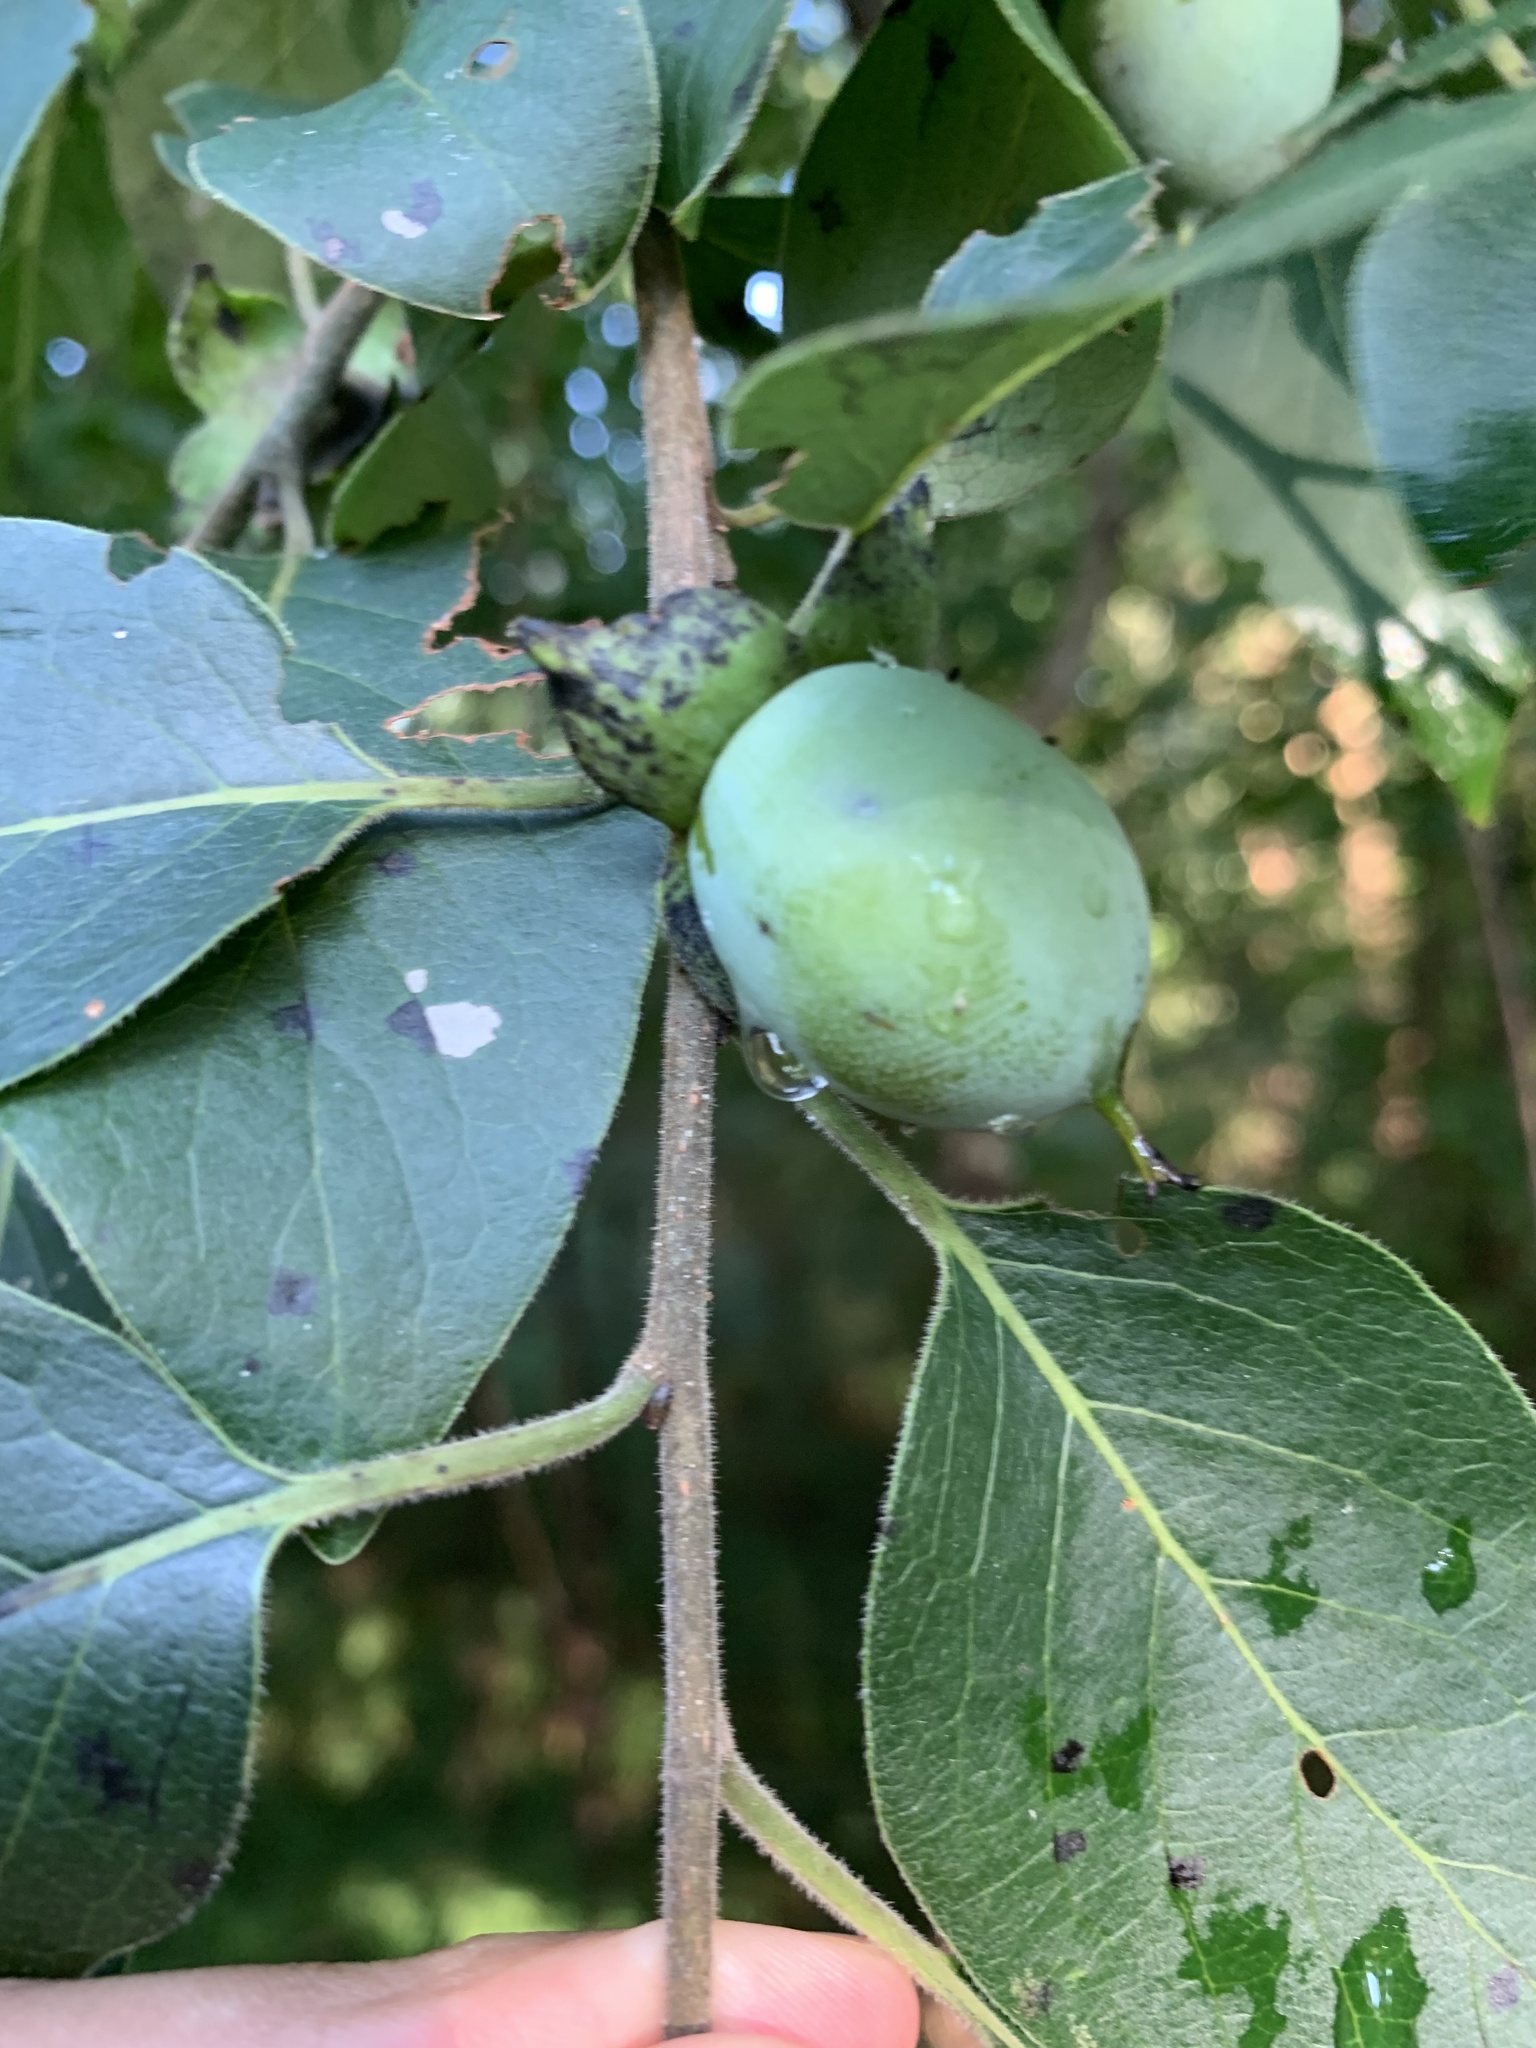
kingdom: Plantae
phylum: Tracheophyta
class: Magnoliopsida
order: Ericales
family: Ebenaceae
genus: Diospyros
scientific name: Diospyros virginiana
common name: Persimmon
